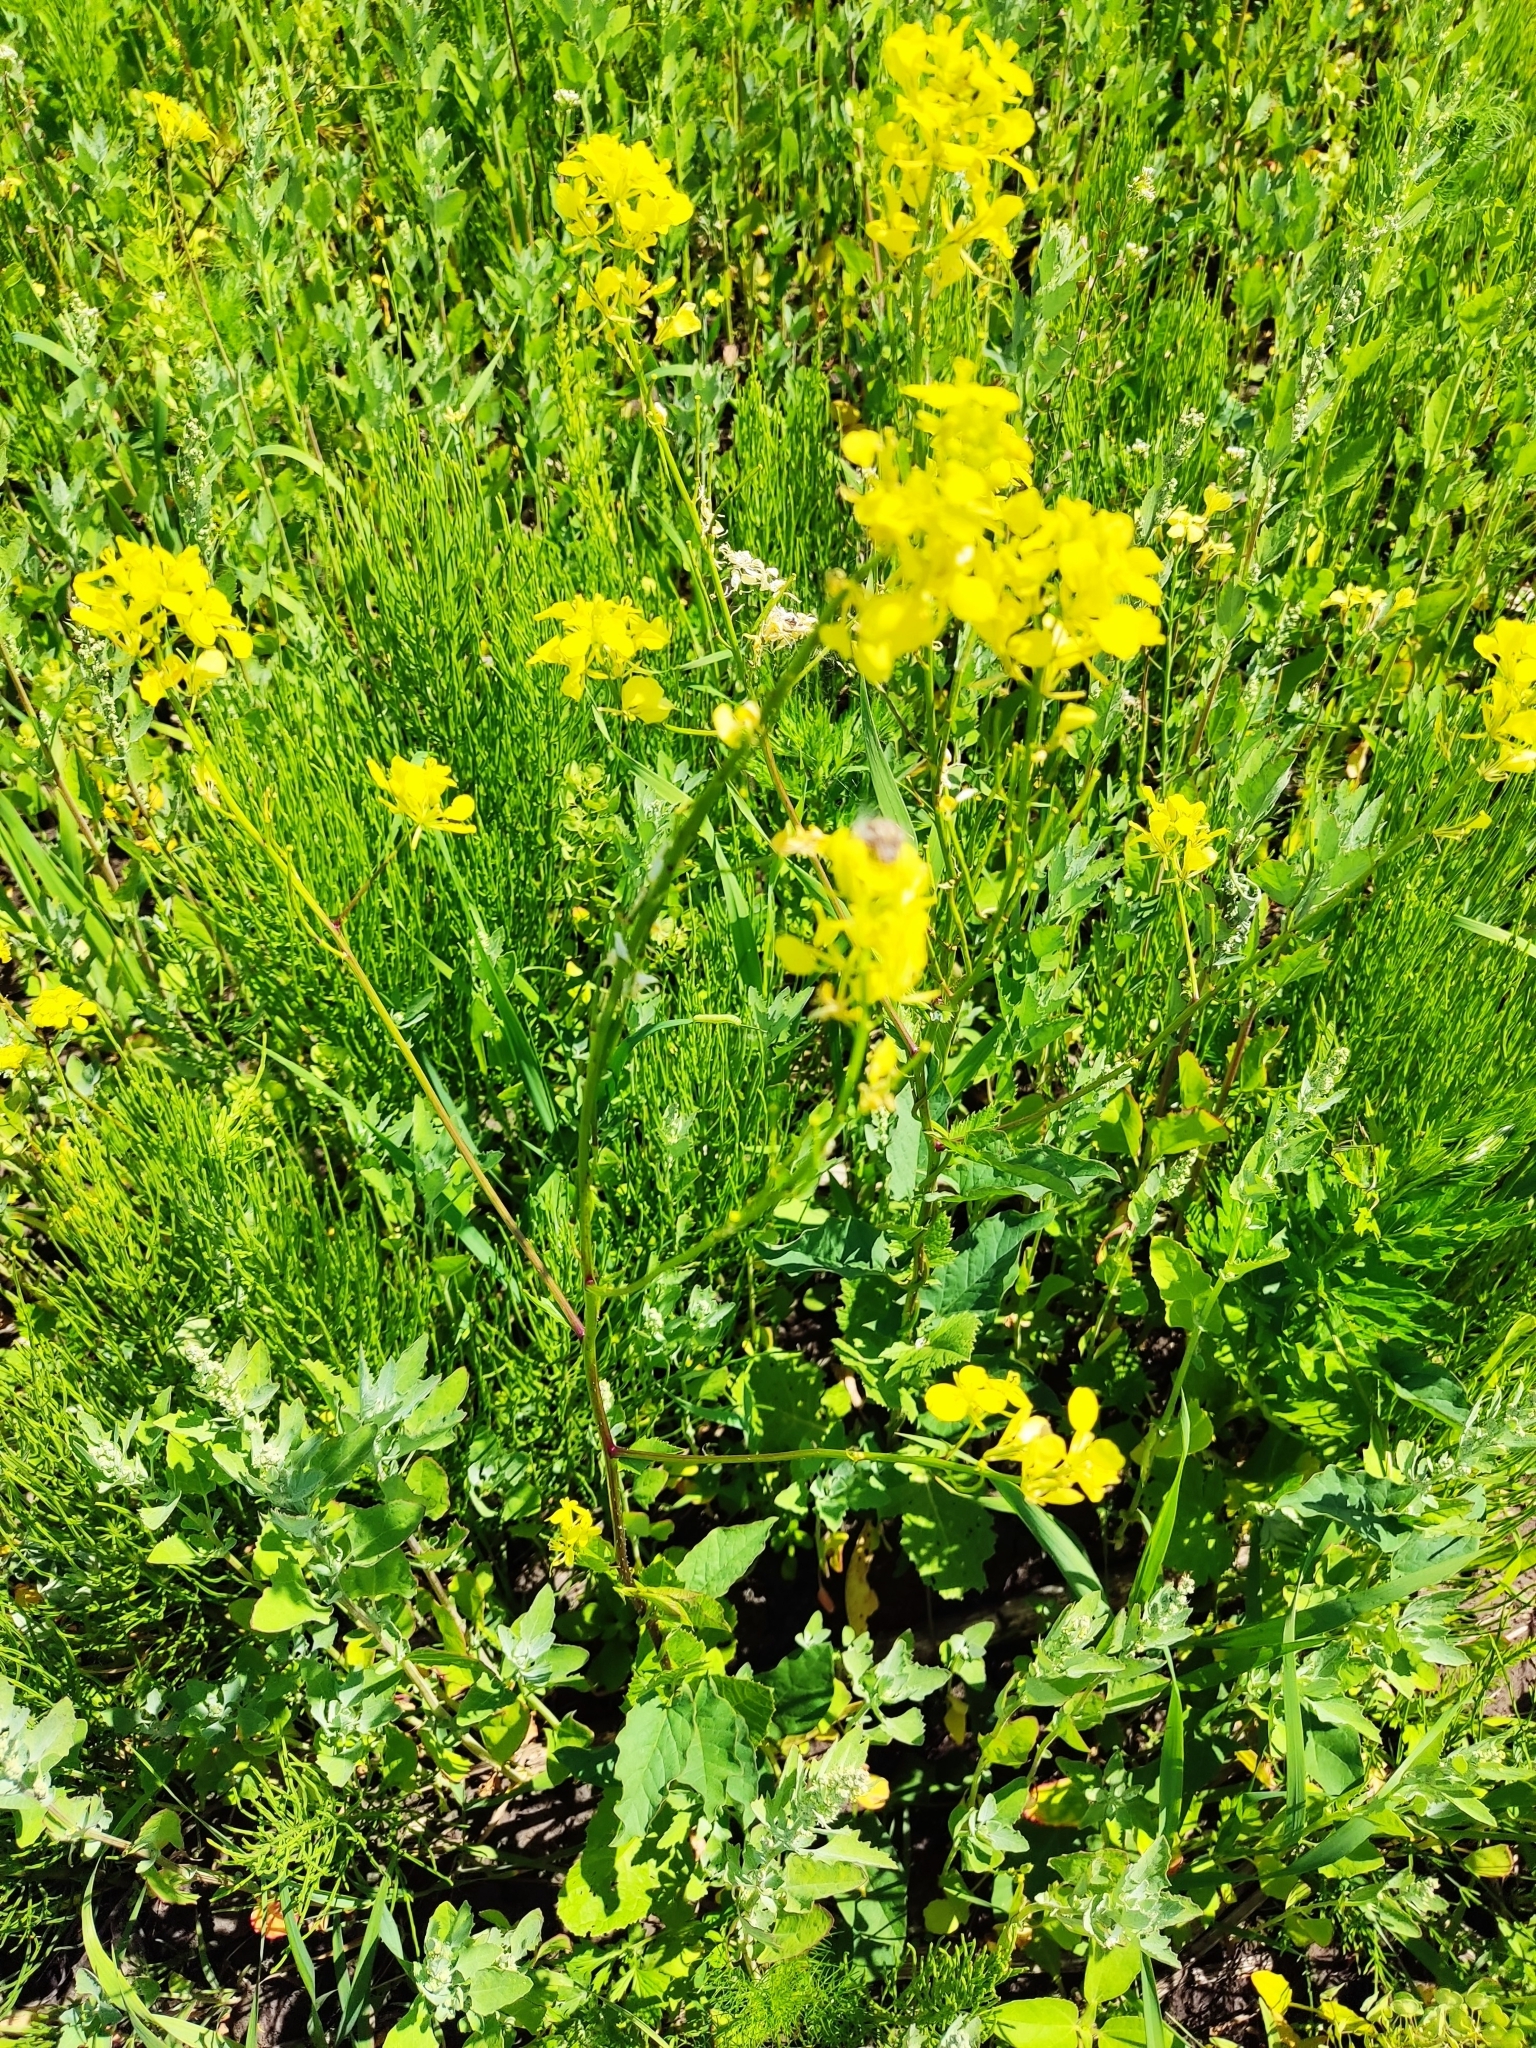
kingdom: Plantae
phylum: Tracheophyta
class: Magnoliopsida
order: Brassicales
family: Brassicaceae
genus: Sinapis
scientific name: Sinapis arvensis
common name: Charlock
